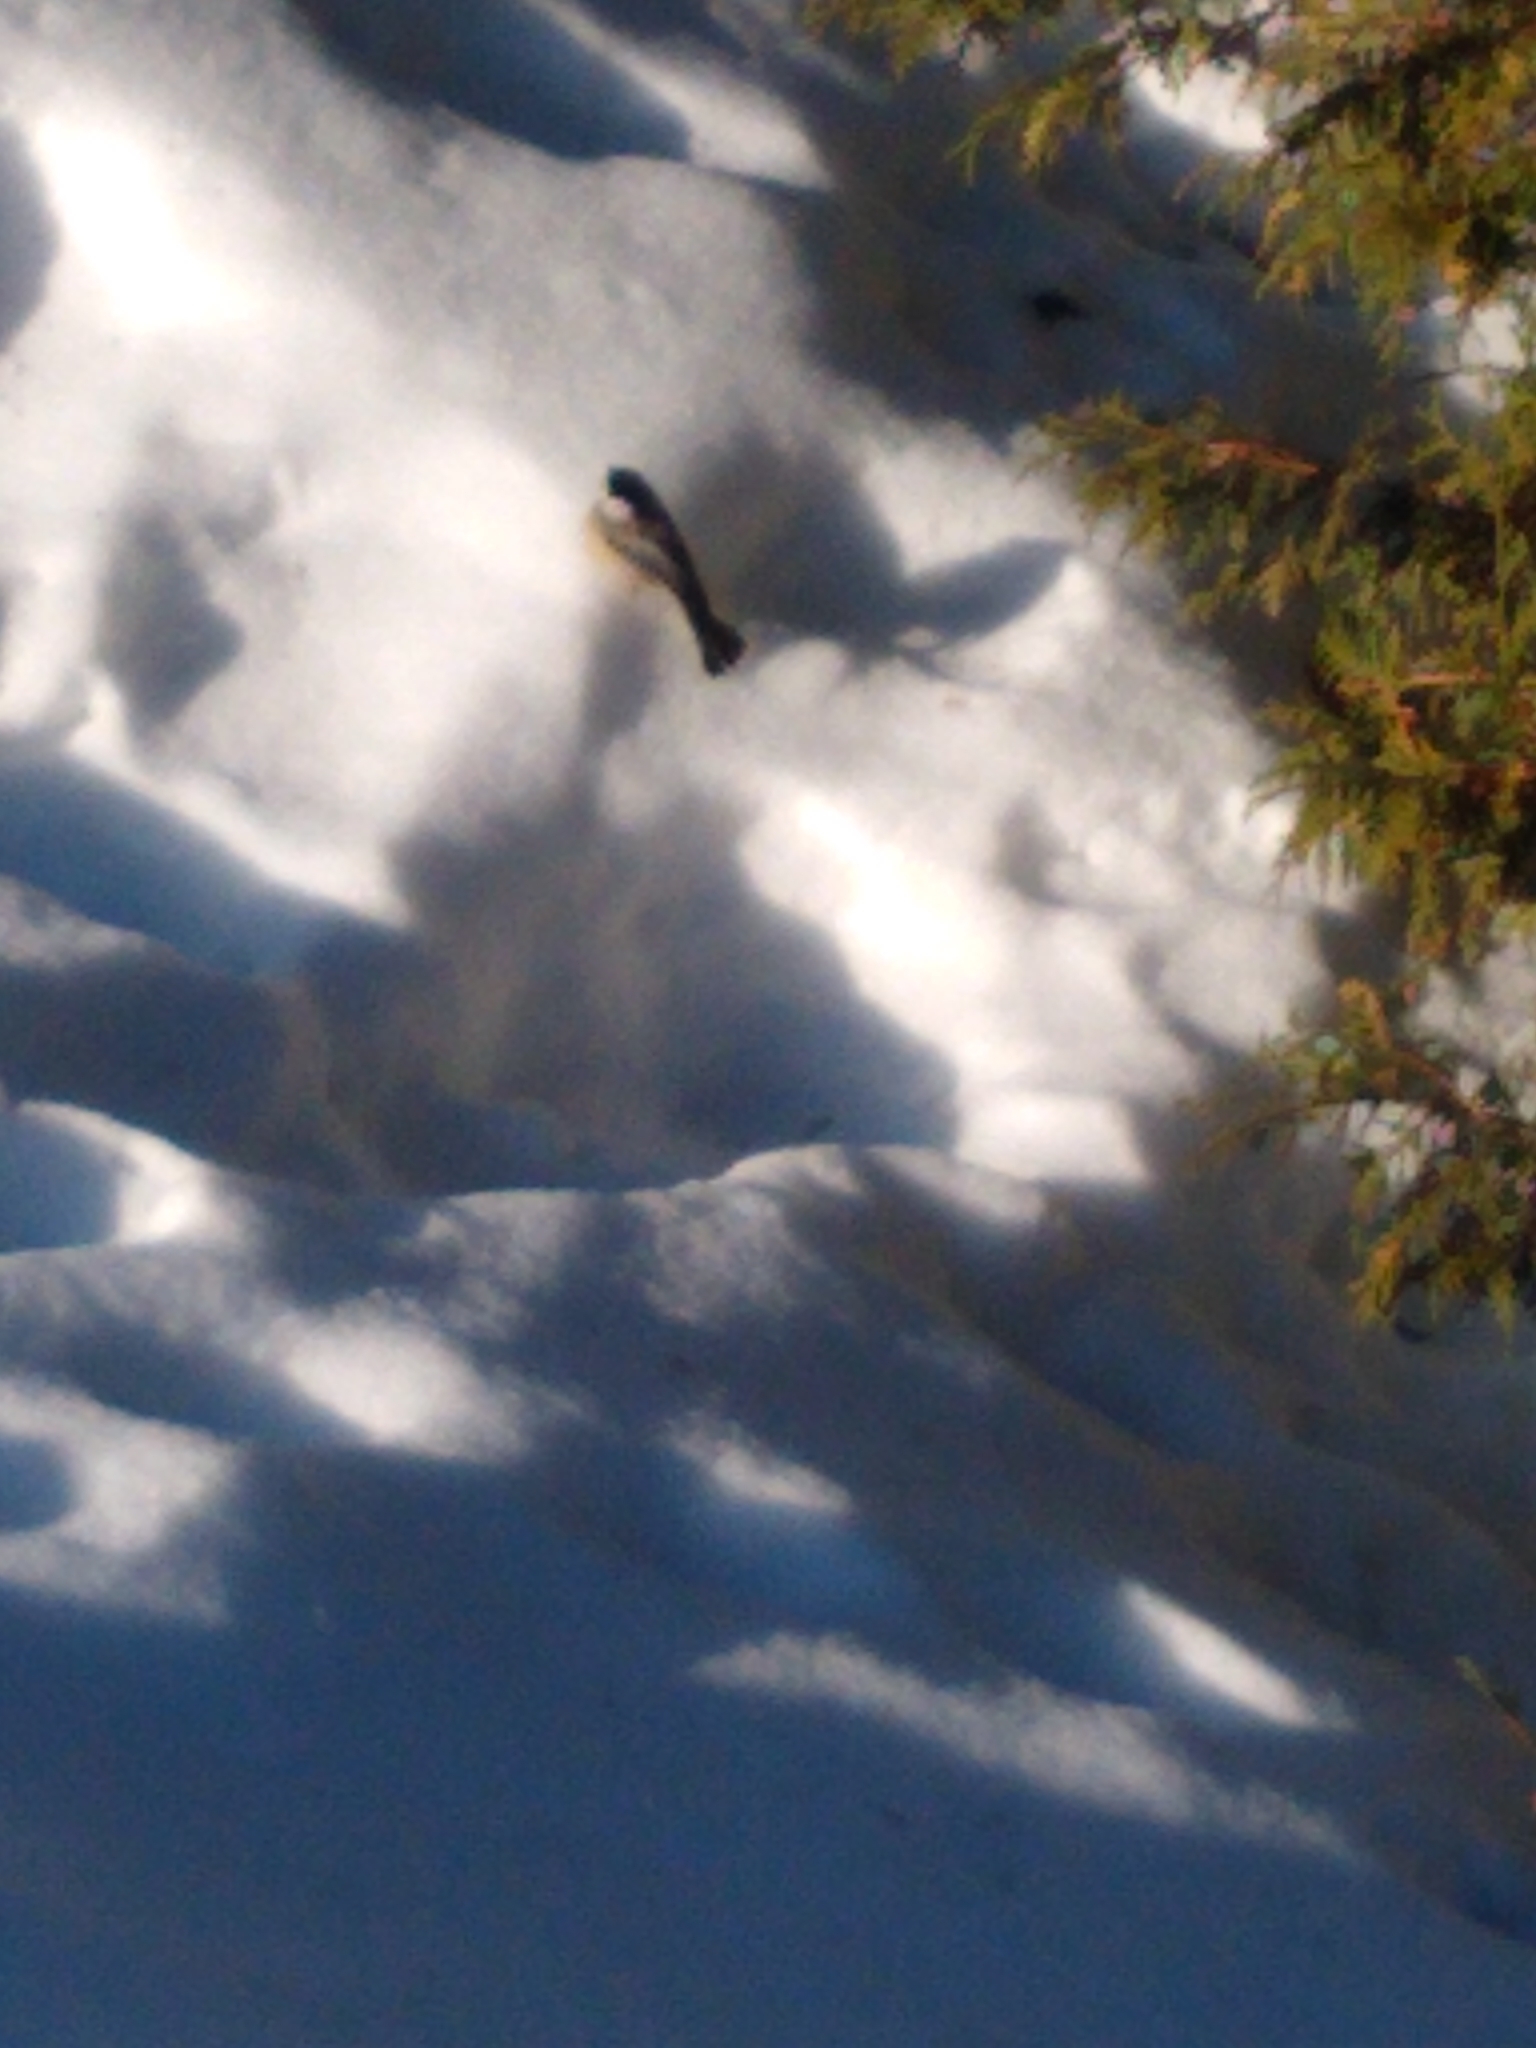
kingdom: Animalia
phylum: Chordata
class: Aves
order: Passeriformes
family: Paridae
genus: Poecile
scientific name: Poecile atricapillus
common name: Black-capped chickadee
